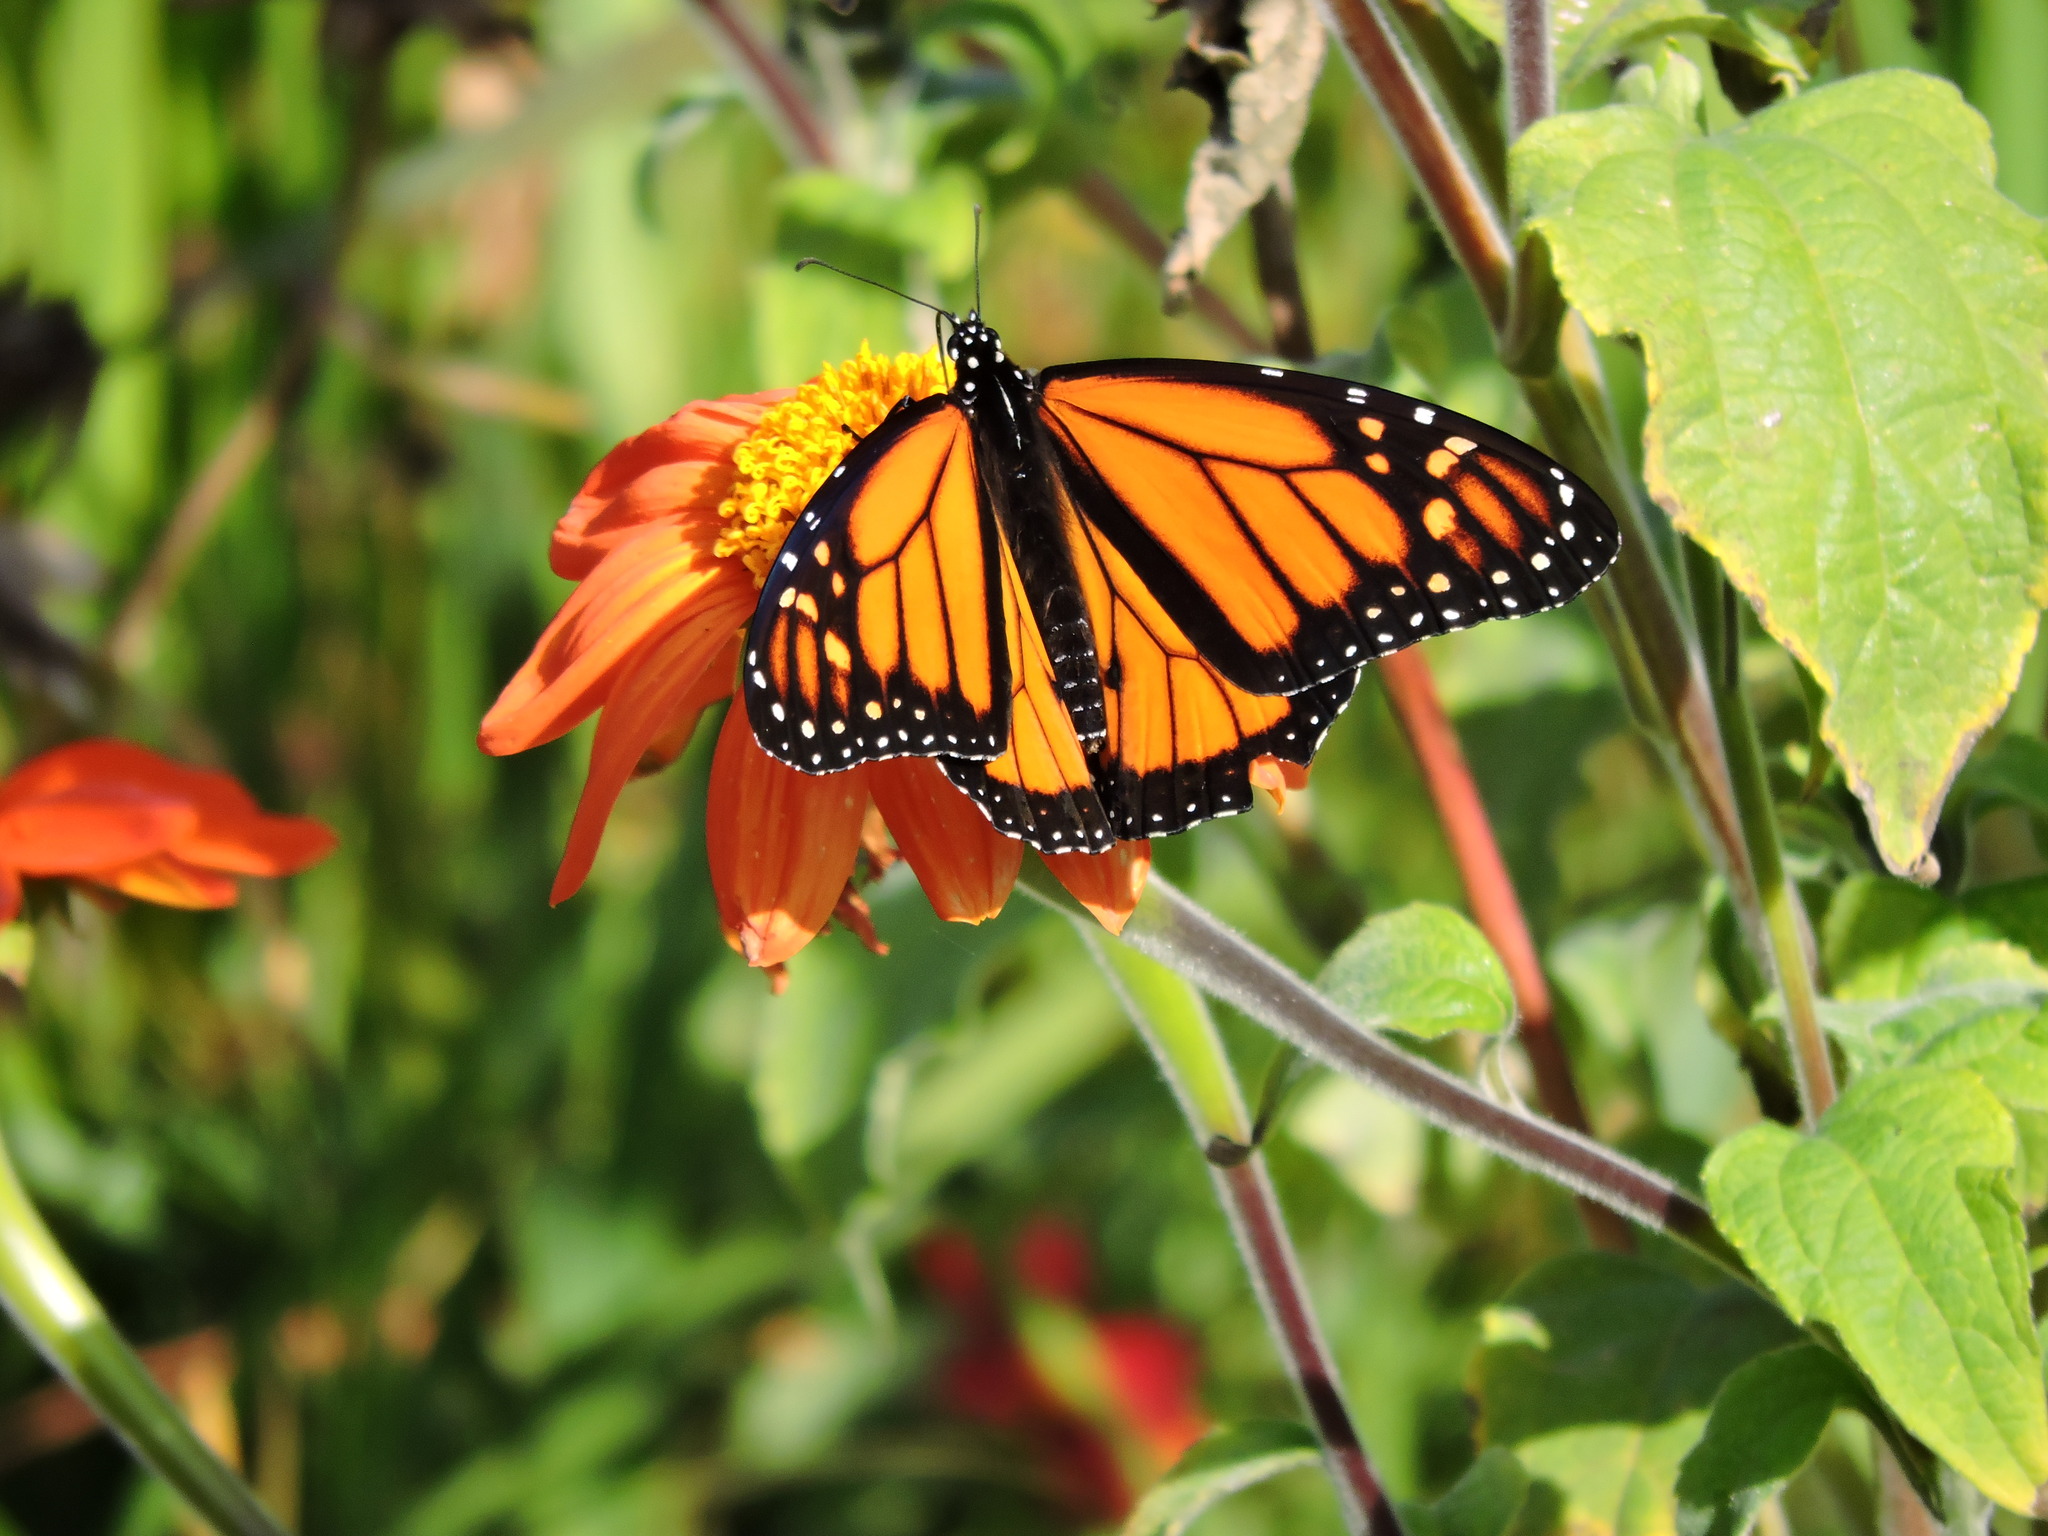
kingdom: Animalia
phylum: Arthropoda
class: Insecta
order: Lepidoptera
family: Nymphalidae
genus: Danaus
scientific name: Danaus plexippus
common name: Monarch
